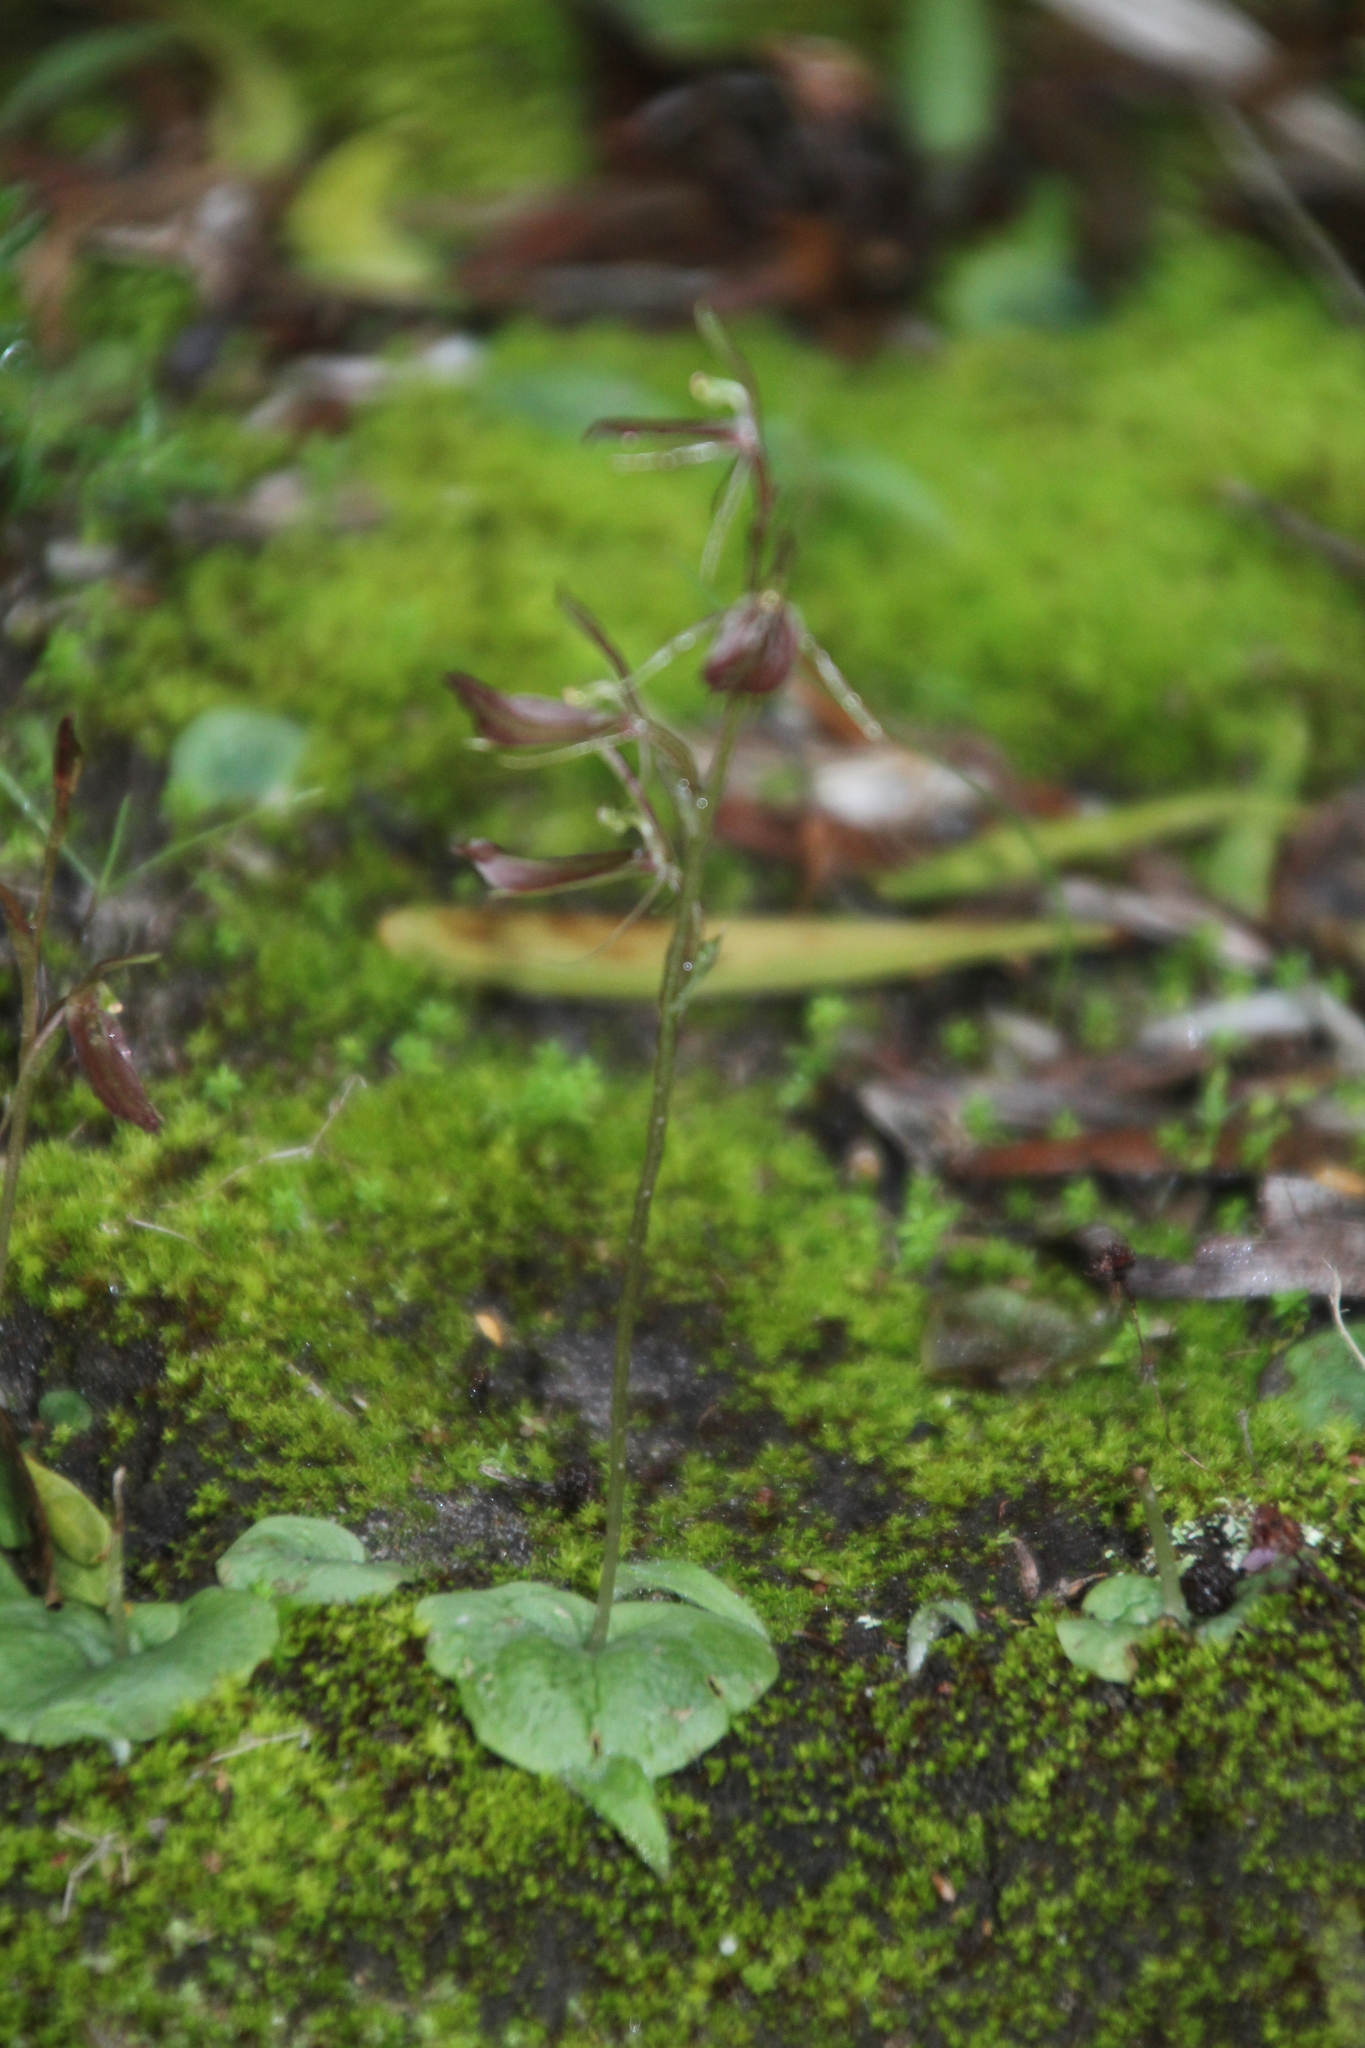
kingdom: Plantae
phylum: Tracheophyta
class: Liliopsida
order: Asparagales
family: Orchidaceae
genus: Cyrtostylis
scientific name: Cyrtostylis robusta
